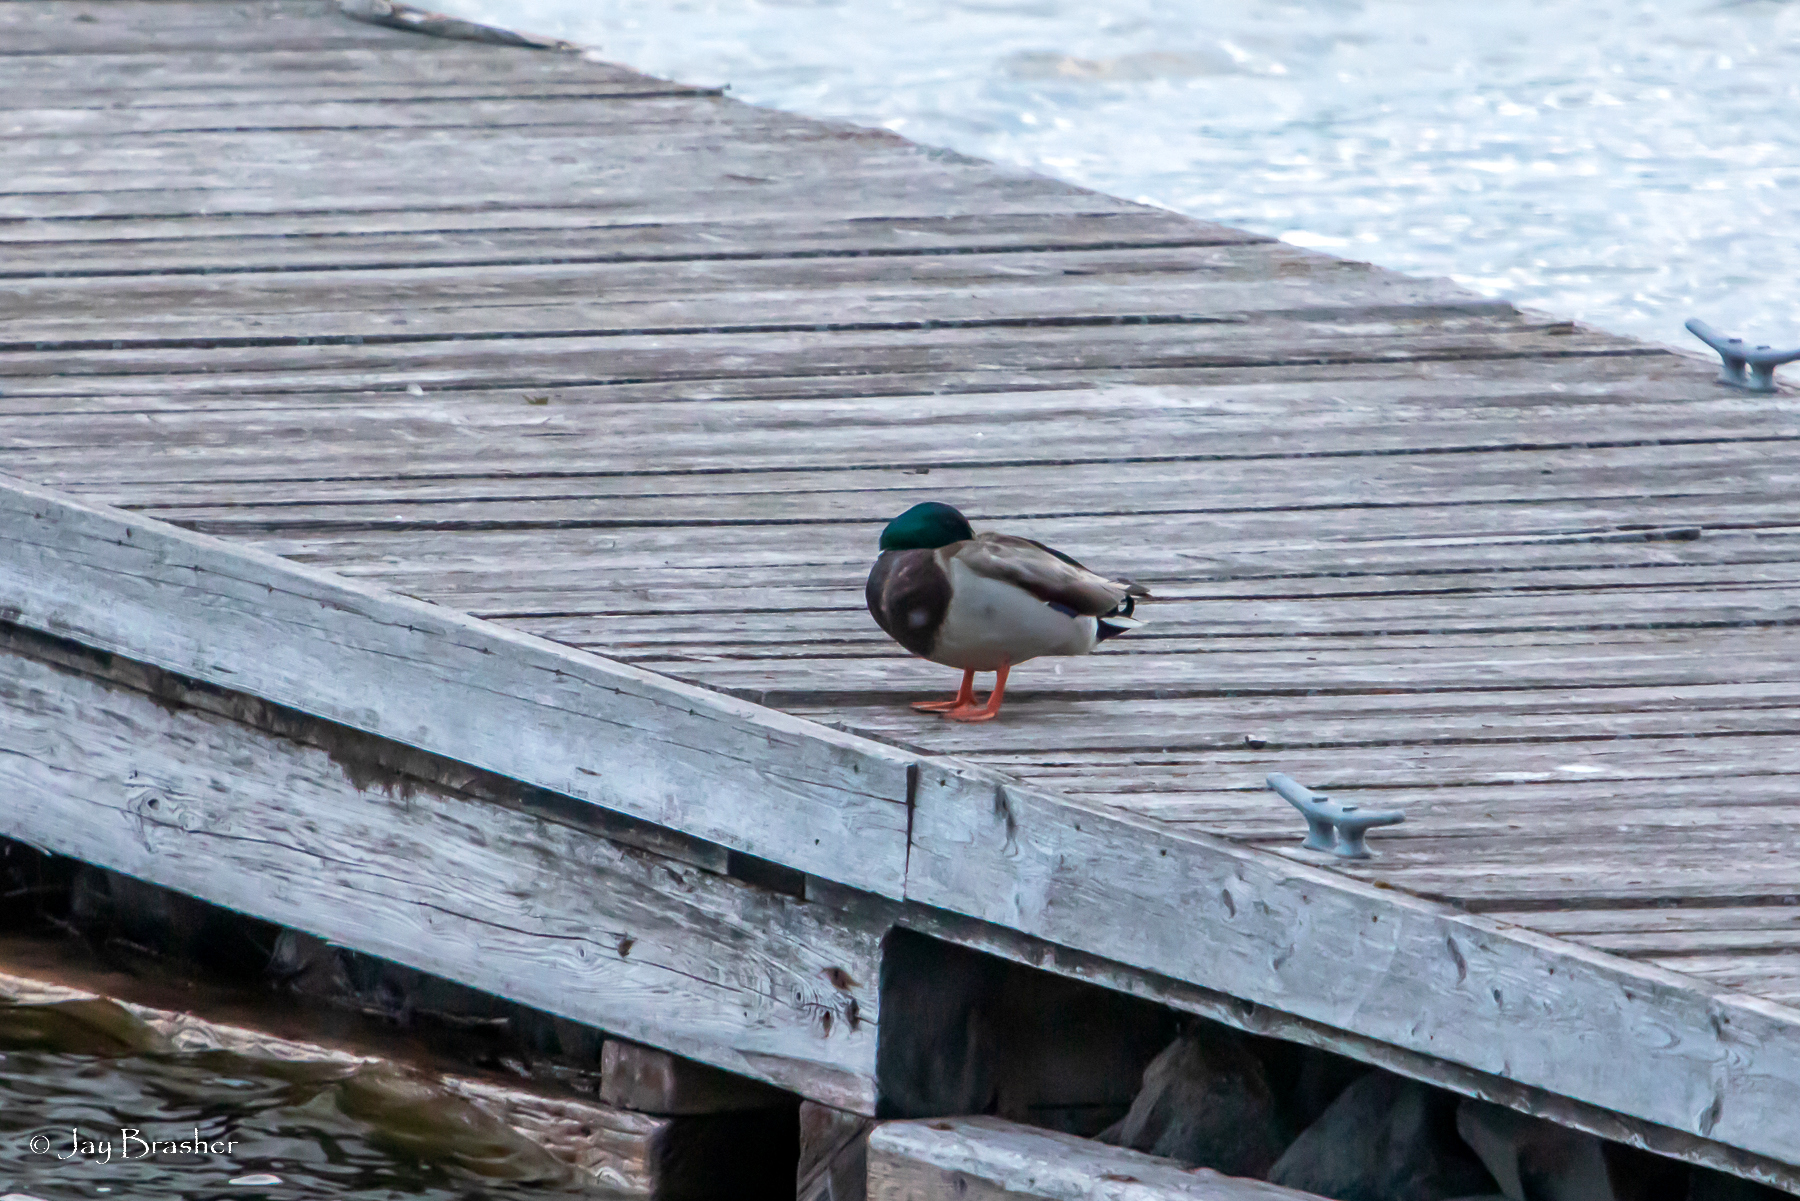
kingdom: Animalia
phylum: Chordata
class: Aves
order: Anseriformes
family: Anatidae
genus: Anas
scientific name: Anas platyrhynchos
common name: Mallard
